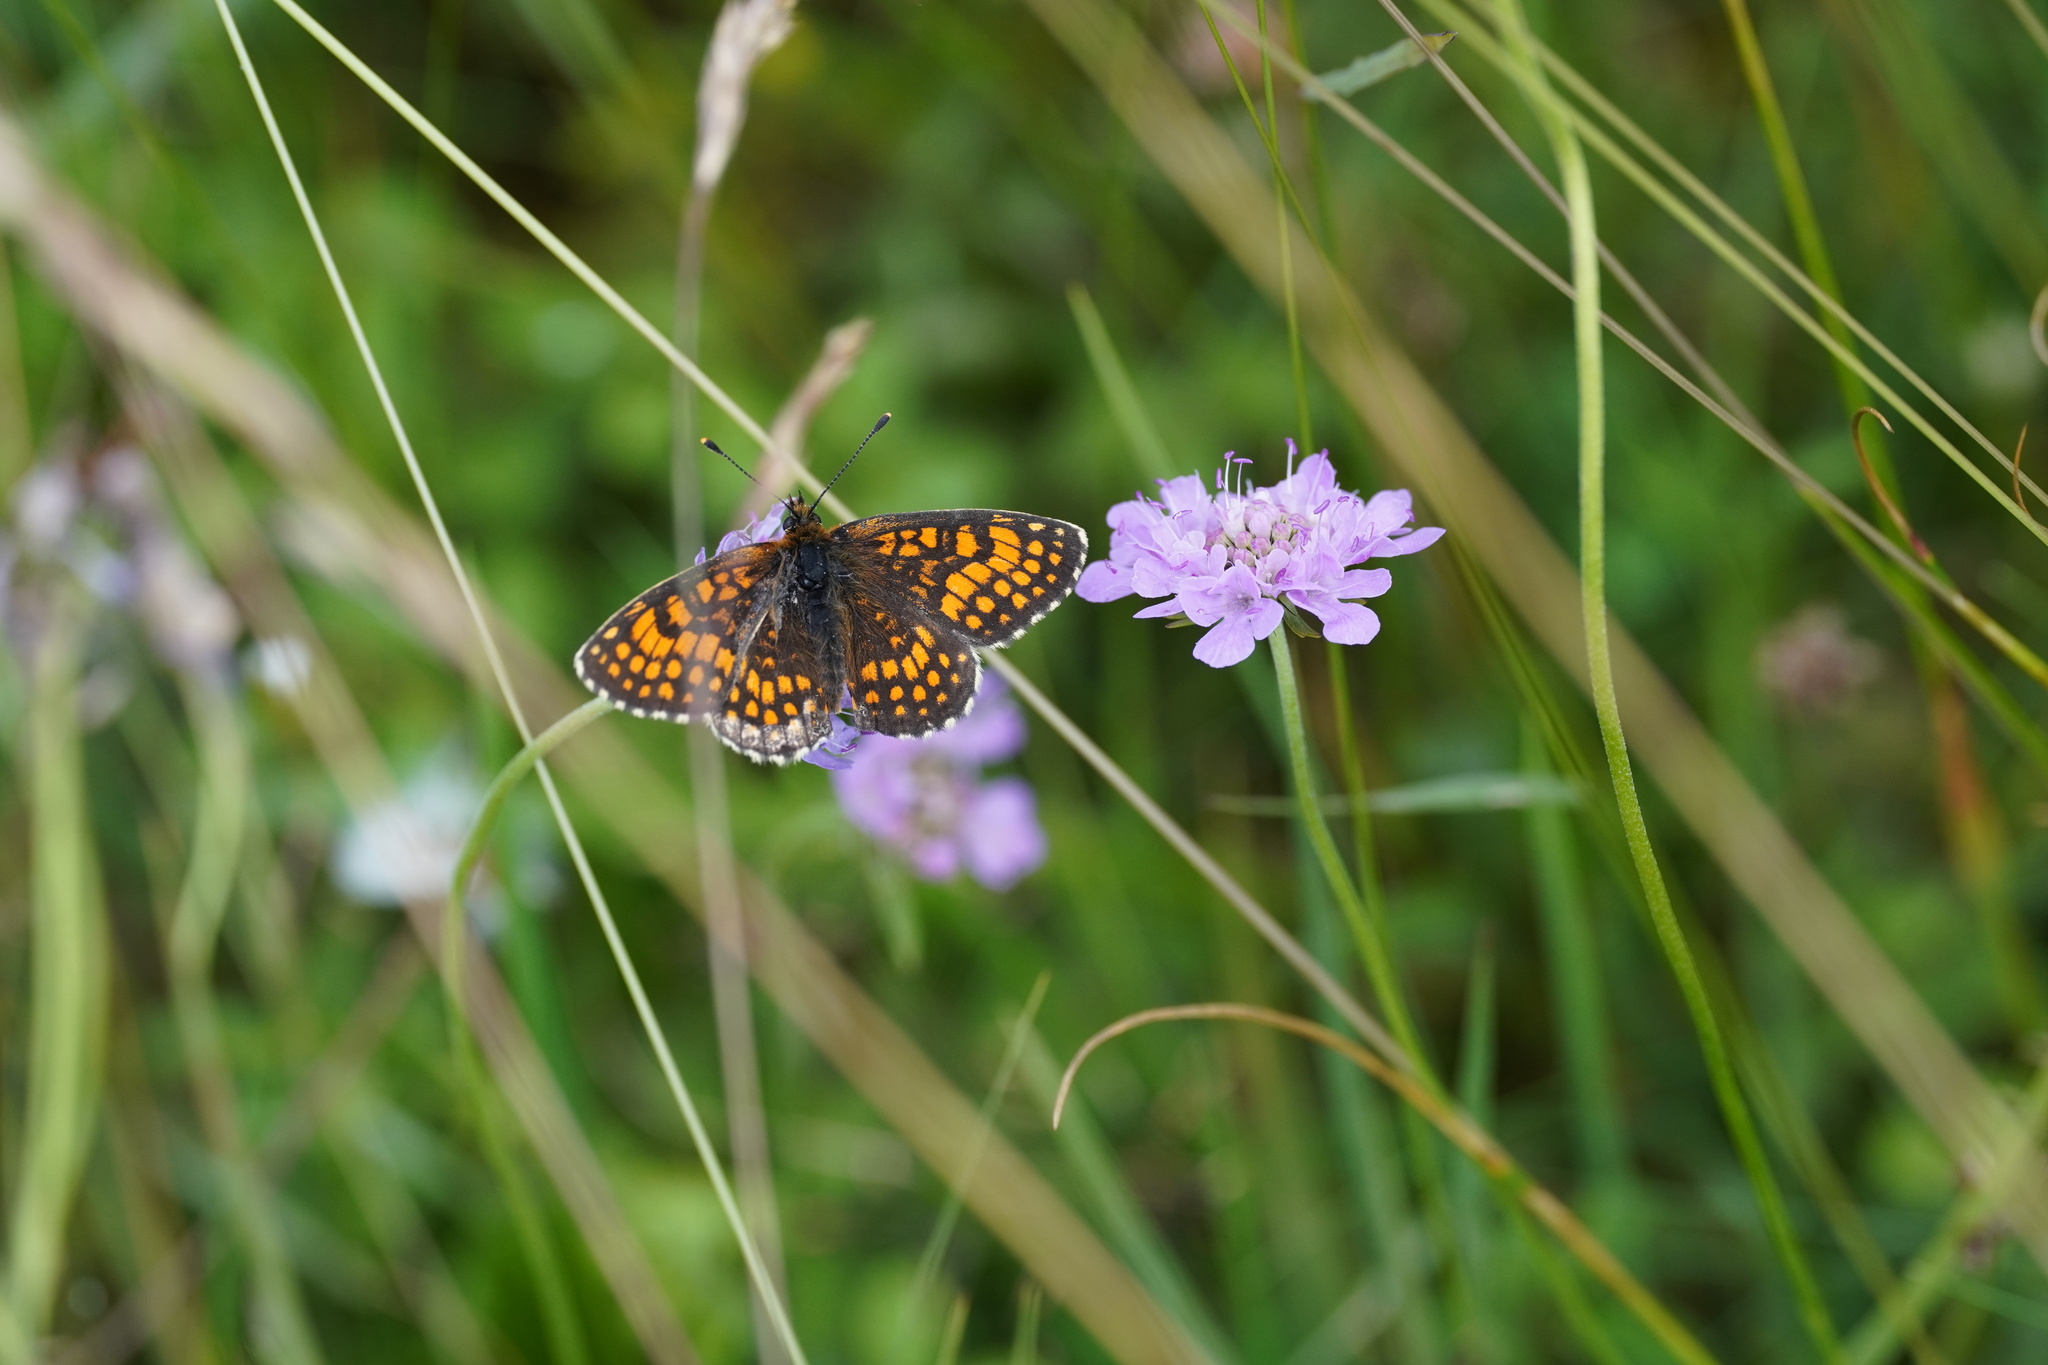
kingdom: Animalia
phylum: Arthropoda
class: Insecta
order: Lepidoptera
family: Nymphalidae
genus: Melitaea
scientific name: Melitaea athalia
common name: Heath fritillary
